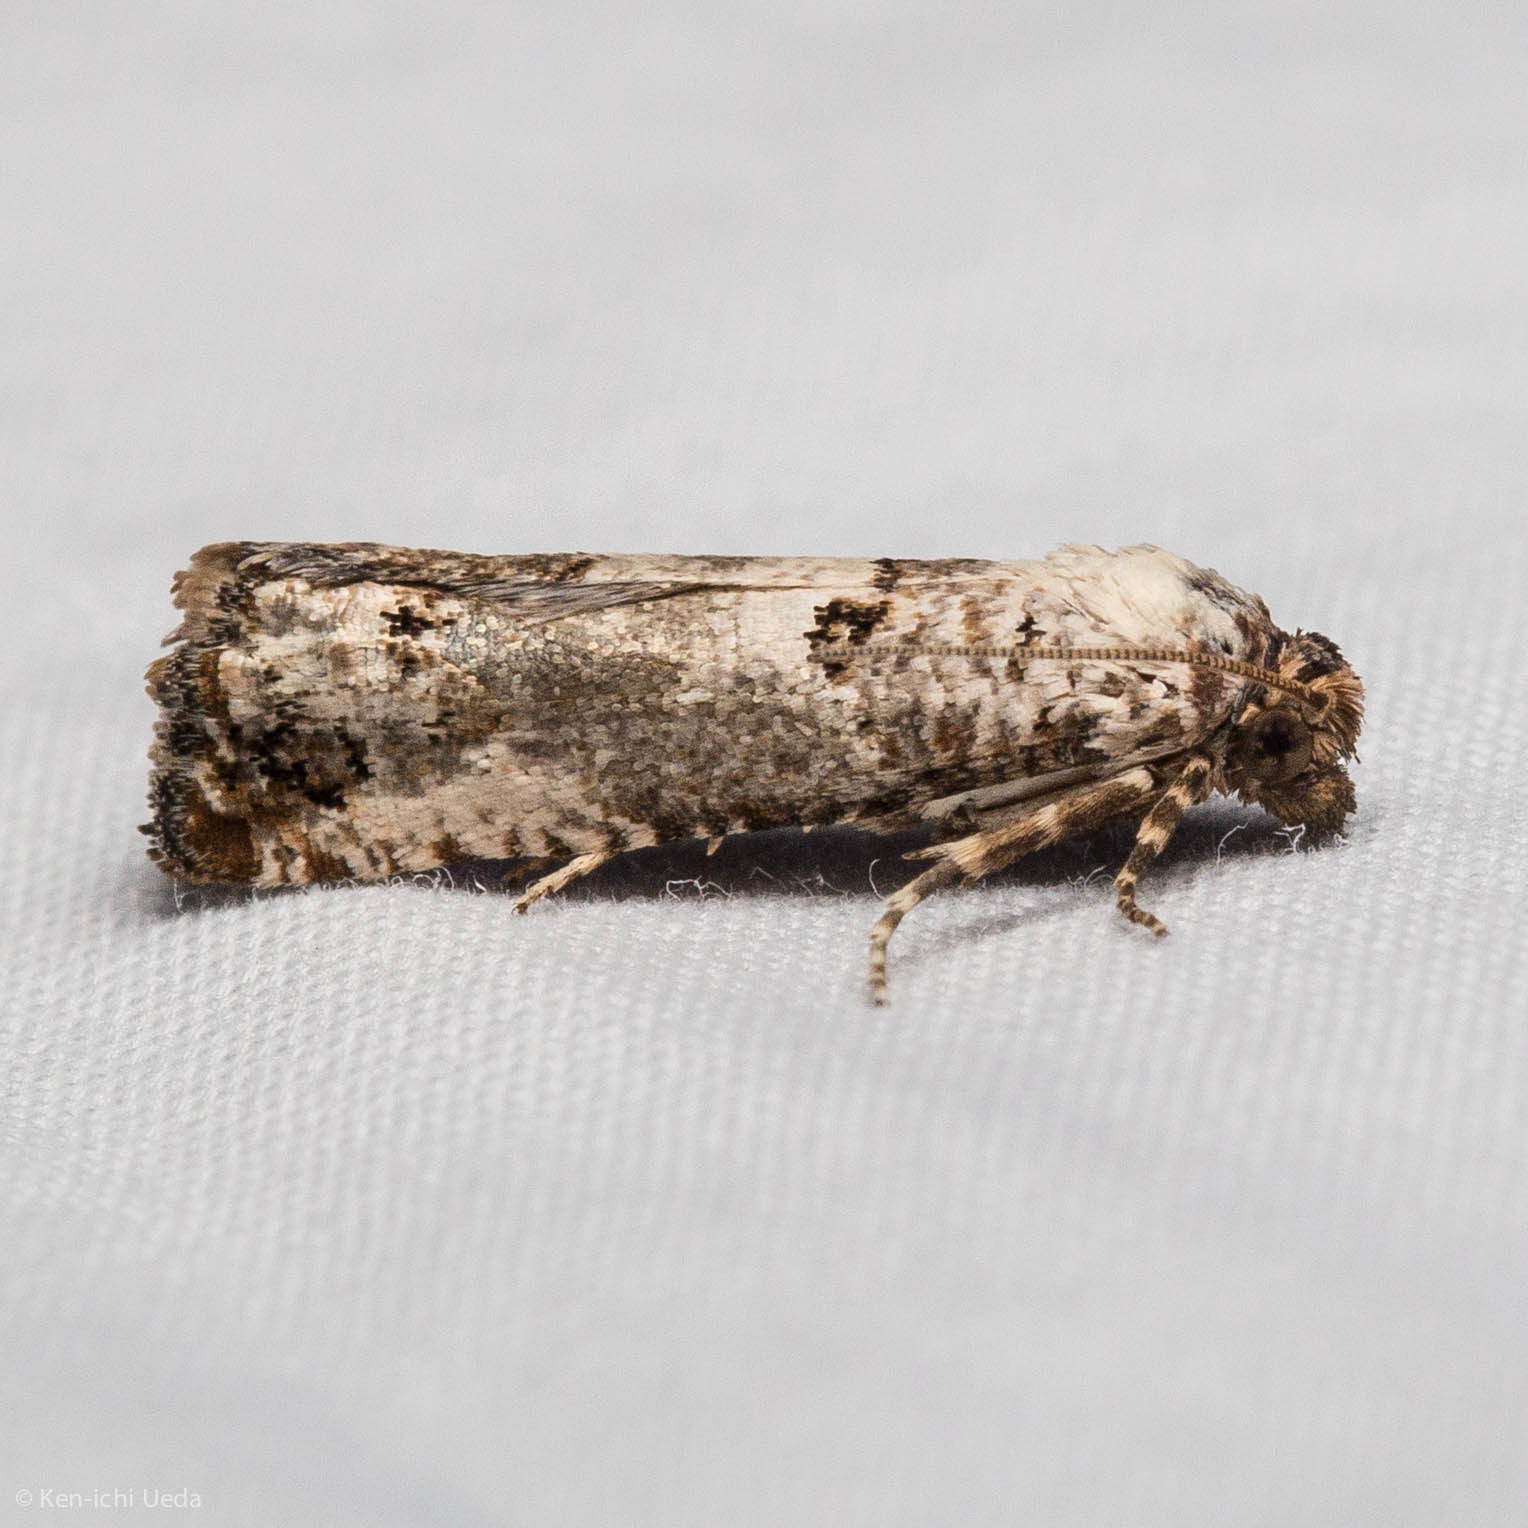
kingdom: Animalia
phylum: Arthropoda
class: Insecta
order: Lepidoptera
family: Tortricidae
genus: Pelochrista
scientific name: Pelochrista eburata
